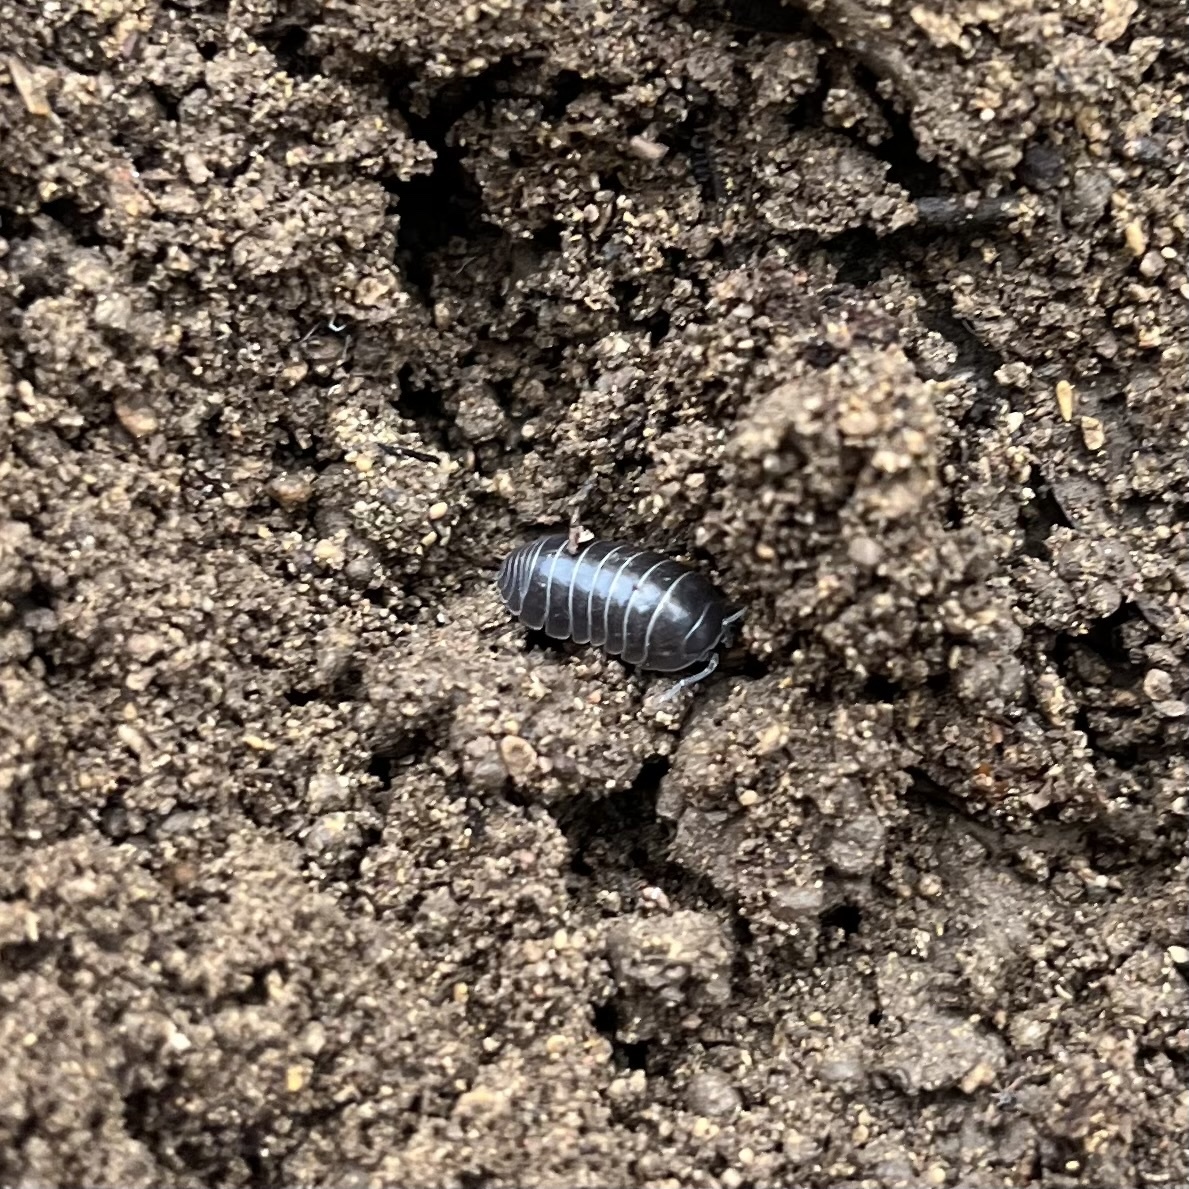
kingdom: Animalia
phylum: Arthropoda
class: Malacostraca
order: Isopoda
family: Armadillidiidae
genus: Armadillidium
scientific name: Armadillidium vulgare
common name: Common pill woodlouse
